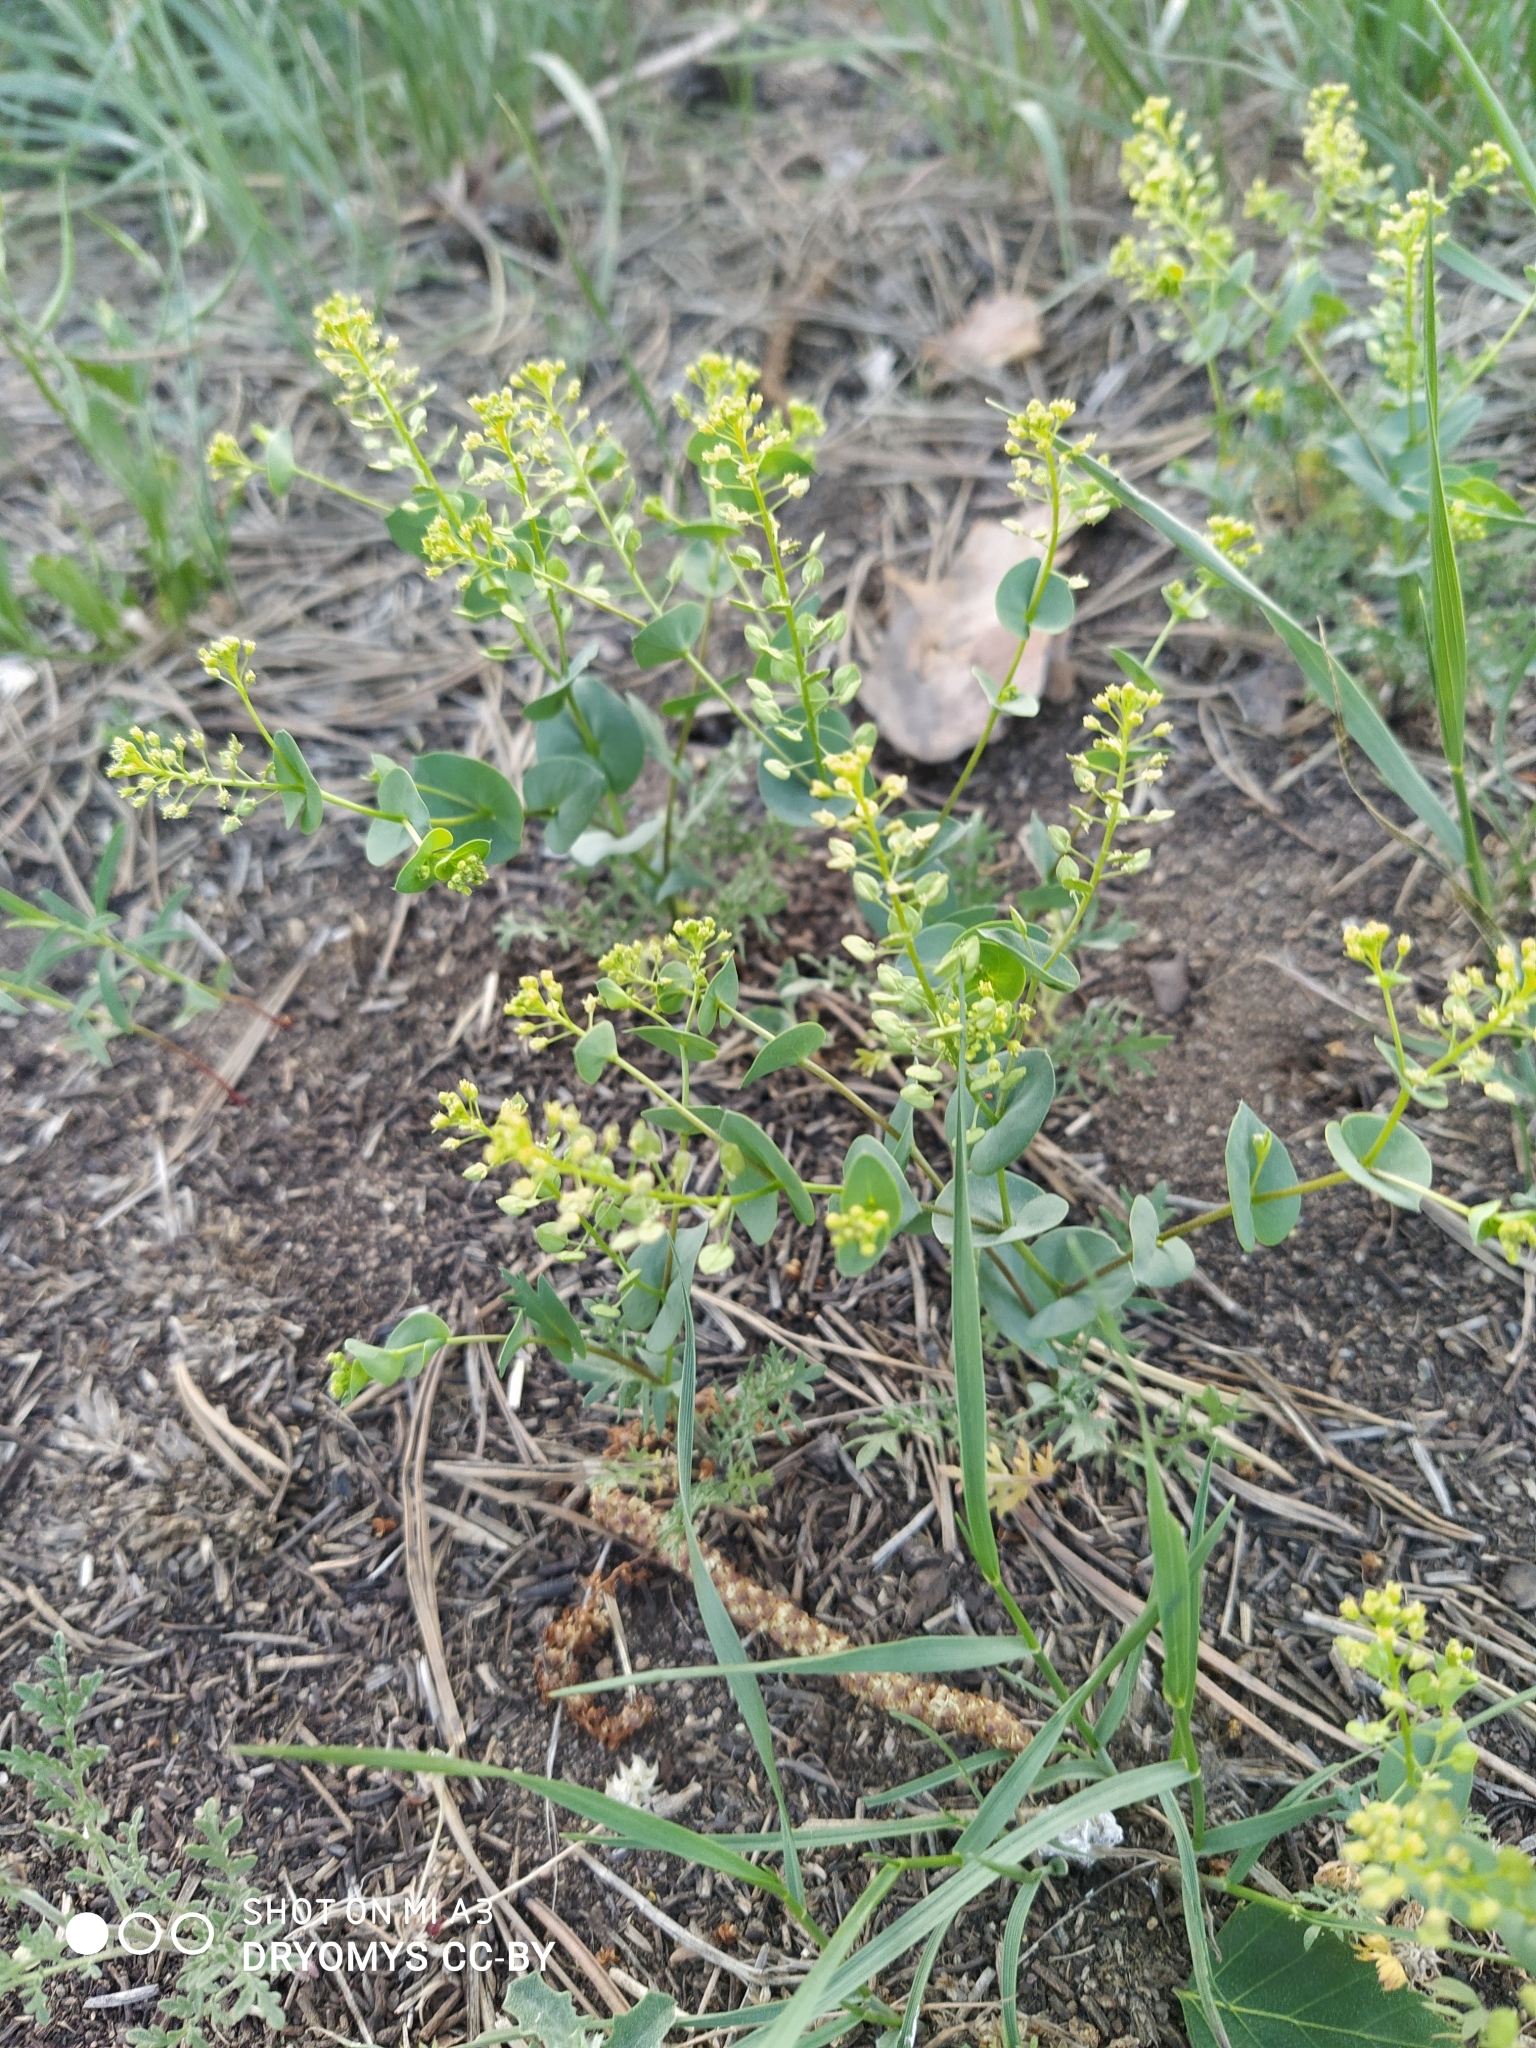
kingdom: Plantae
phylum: Tracheophyta
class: Magnoliopsida
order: Brassicales
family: Brassicaceae
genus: Lepidium
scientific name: Lepidium perfoliatum
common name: Perfoliate pepperwort
